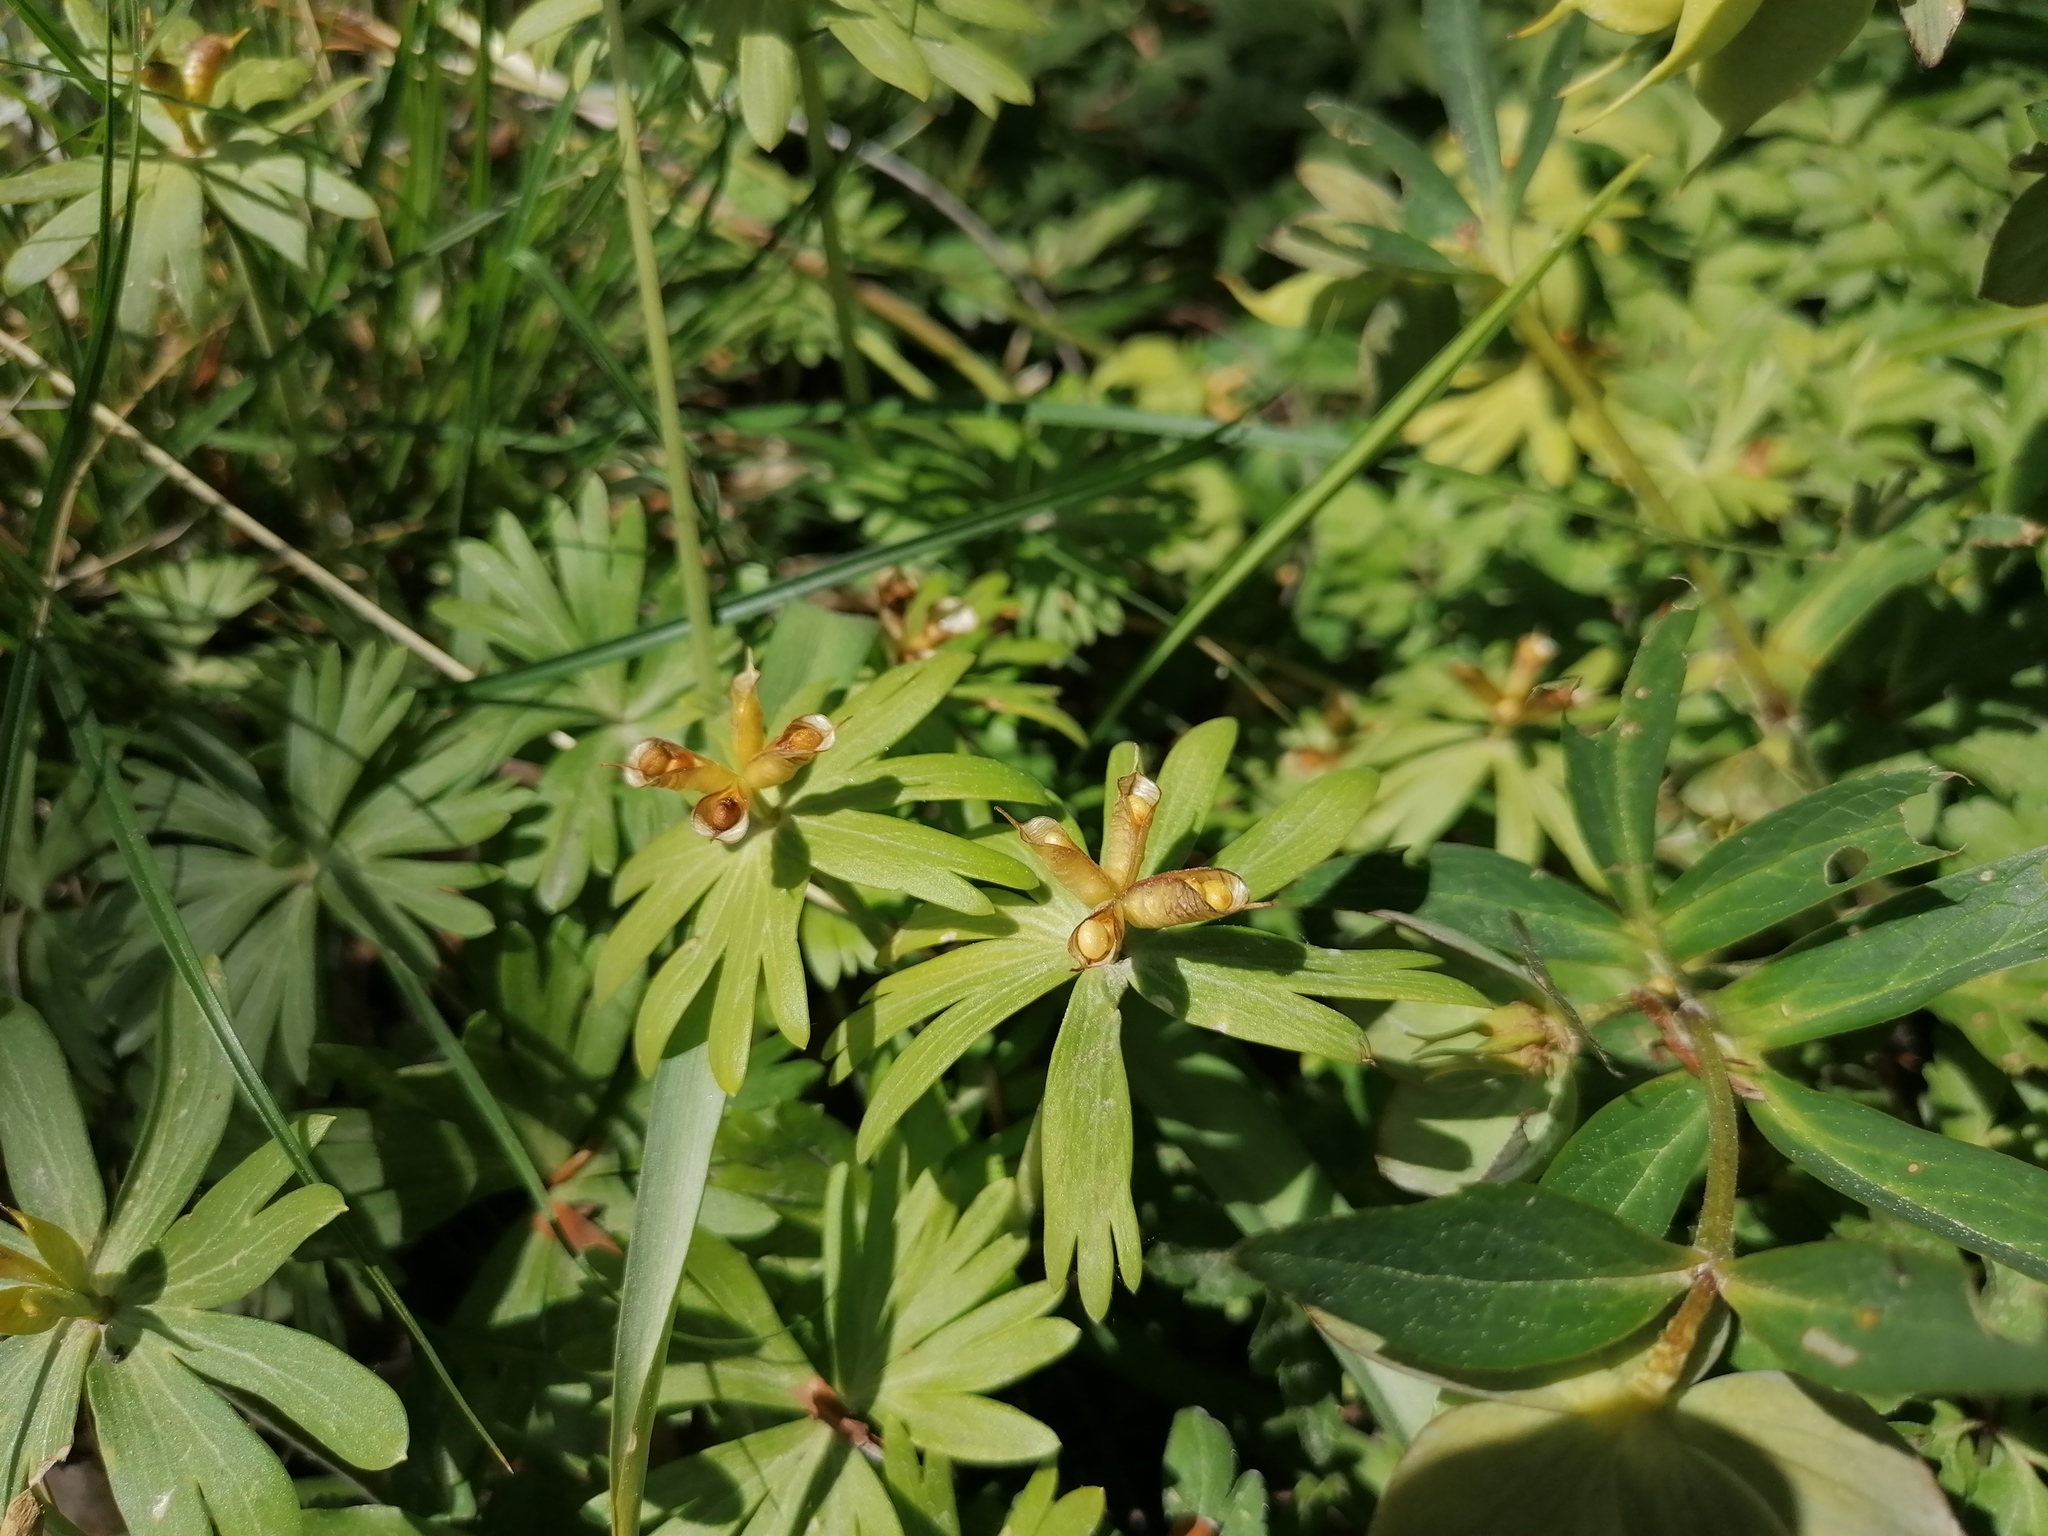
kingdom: Plantae
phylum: Tracheophyta
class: Magnoliopsida
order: Ranunculales
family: Ranunculaceae
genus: Eranthis
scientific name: Eranthis hyemalis
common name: Winter aconite
